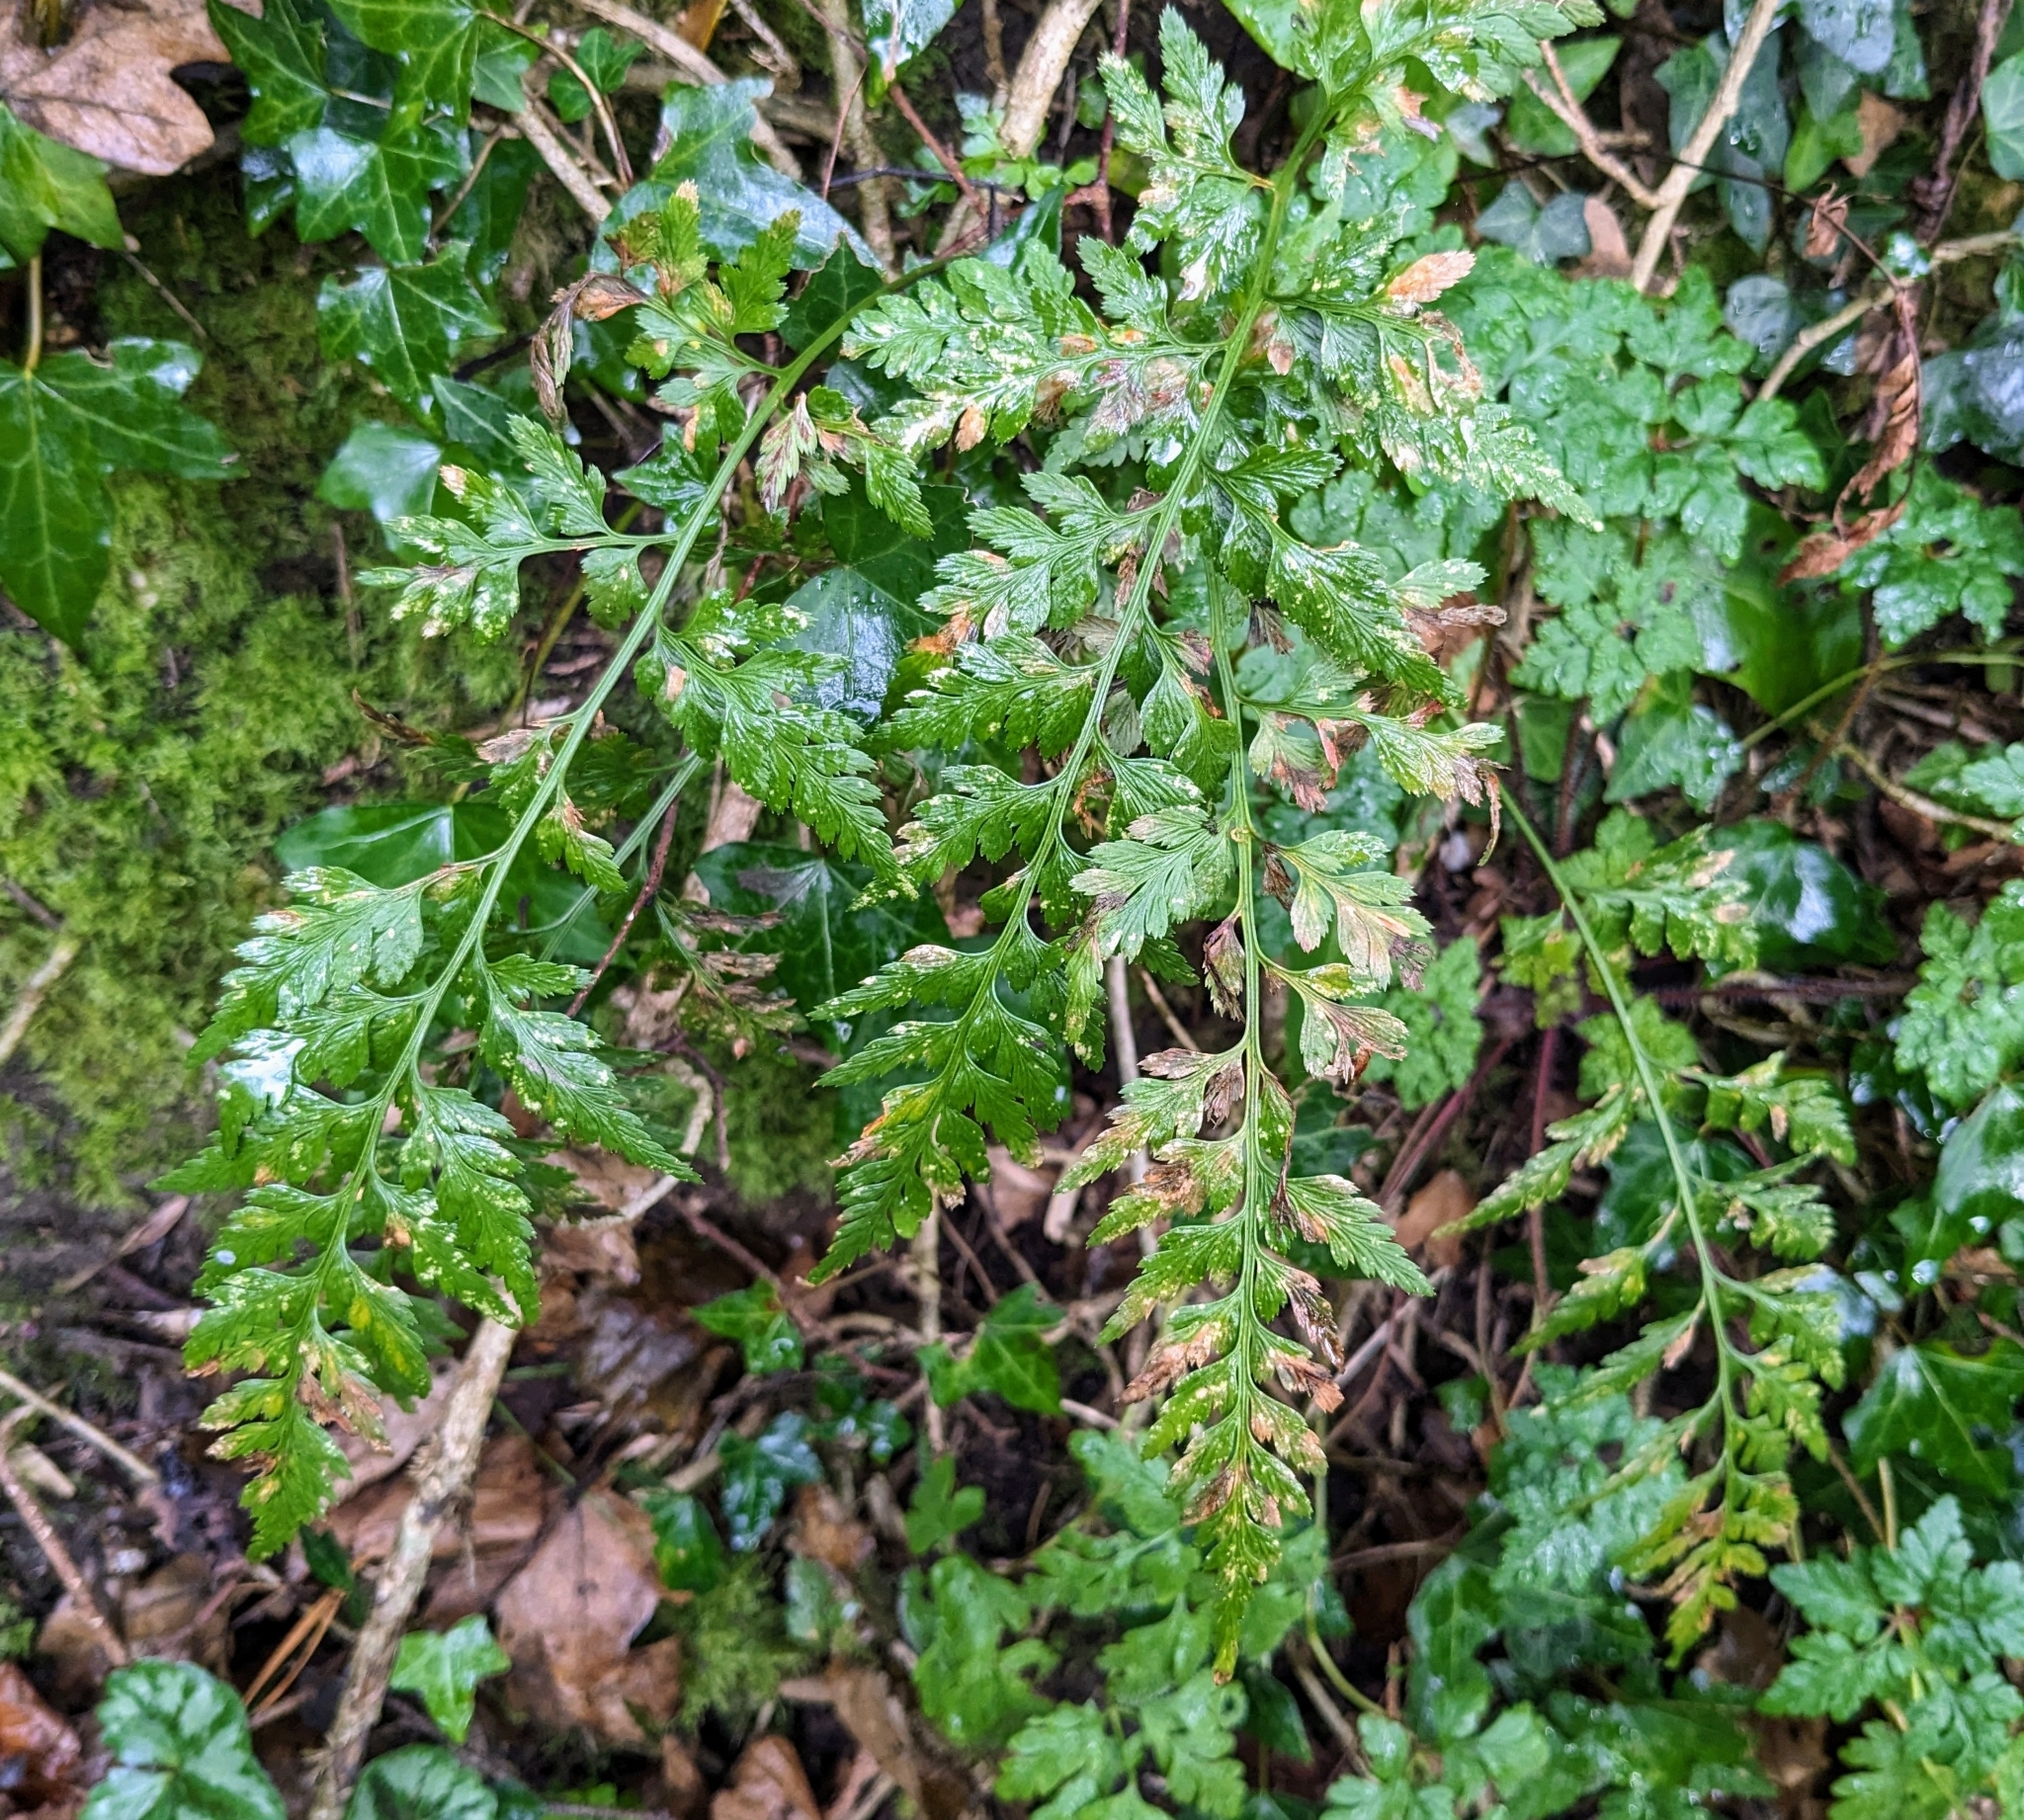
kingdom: Plantae
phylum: Tracheophyta
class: Polypodiopsida
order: Polypodiales
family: Aspleniaceae
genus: Asplenium
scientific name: Asplenium adiantum-nigrum
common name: Black spleenwort
